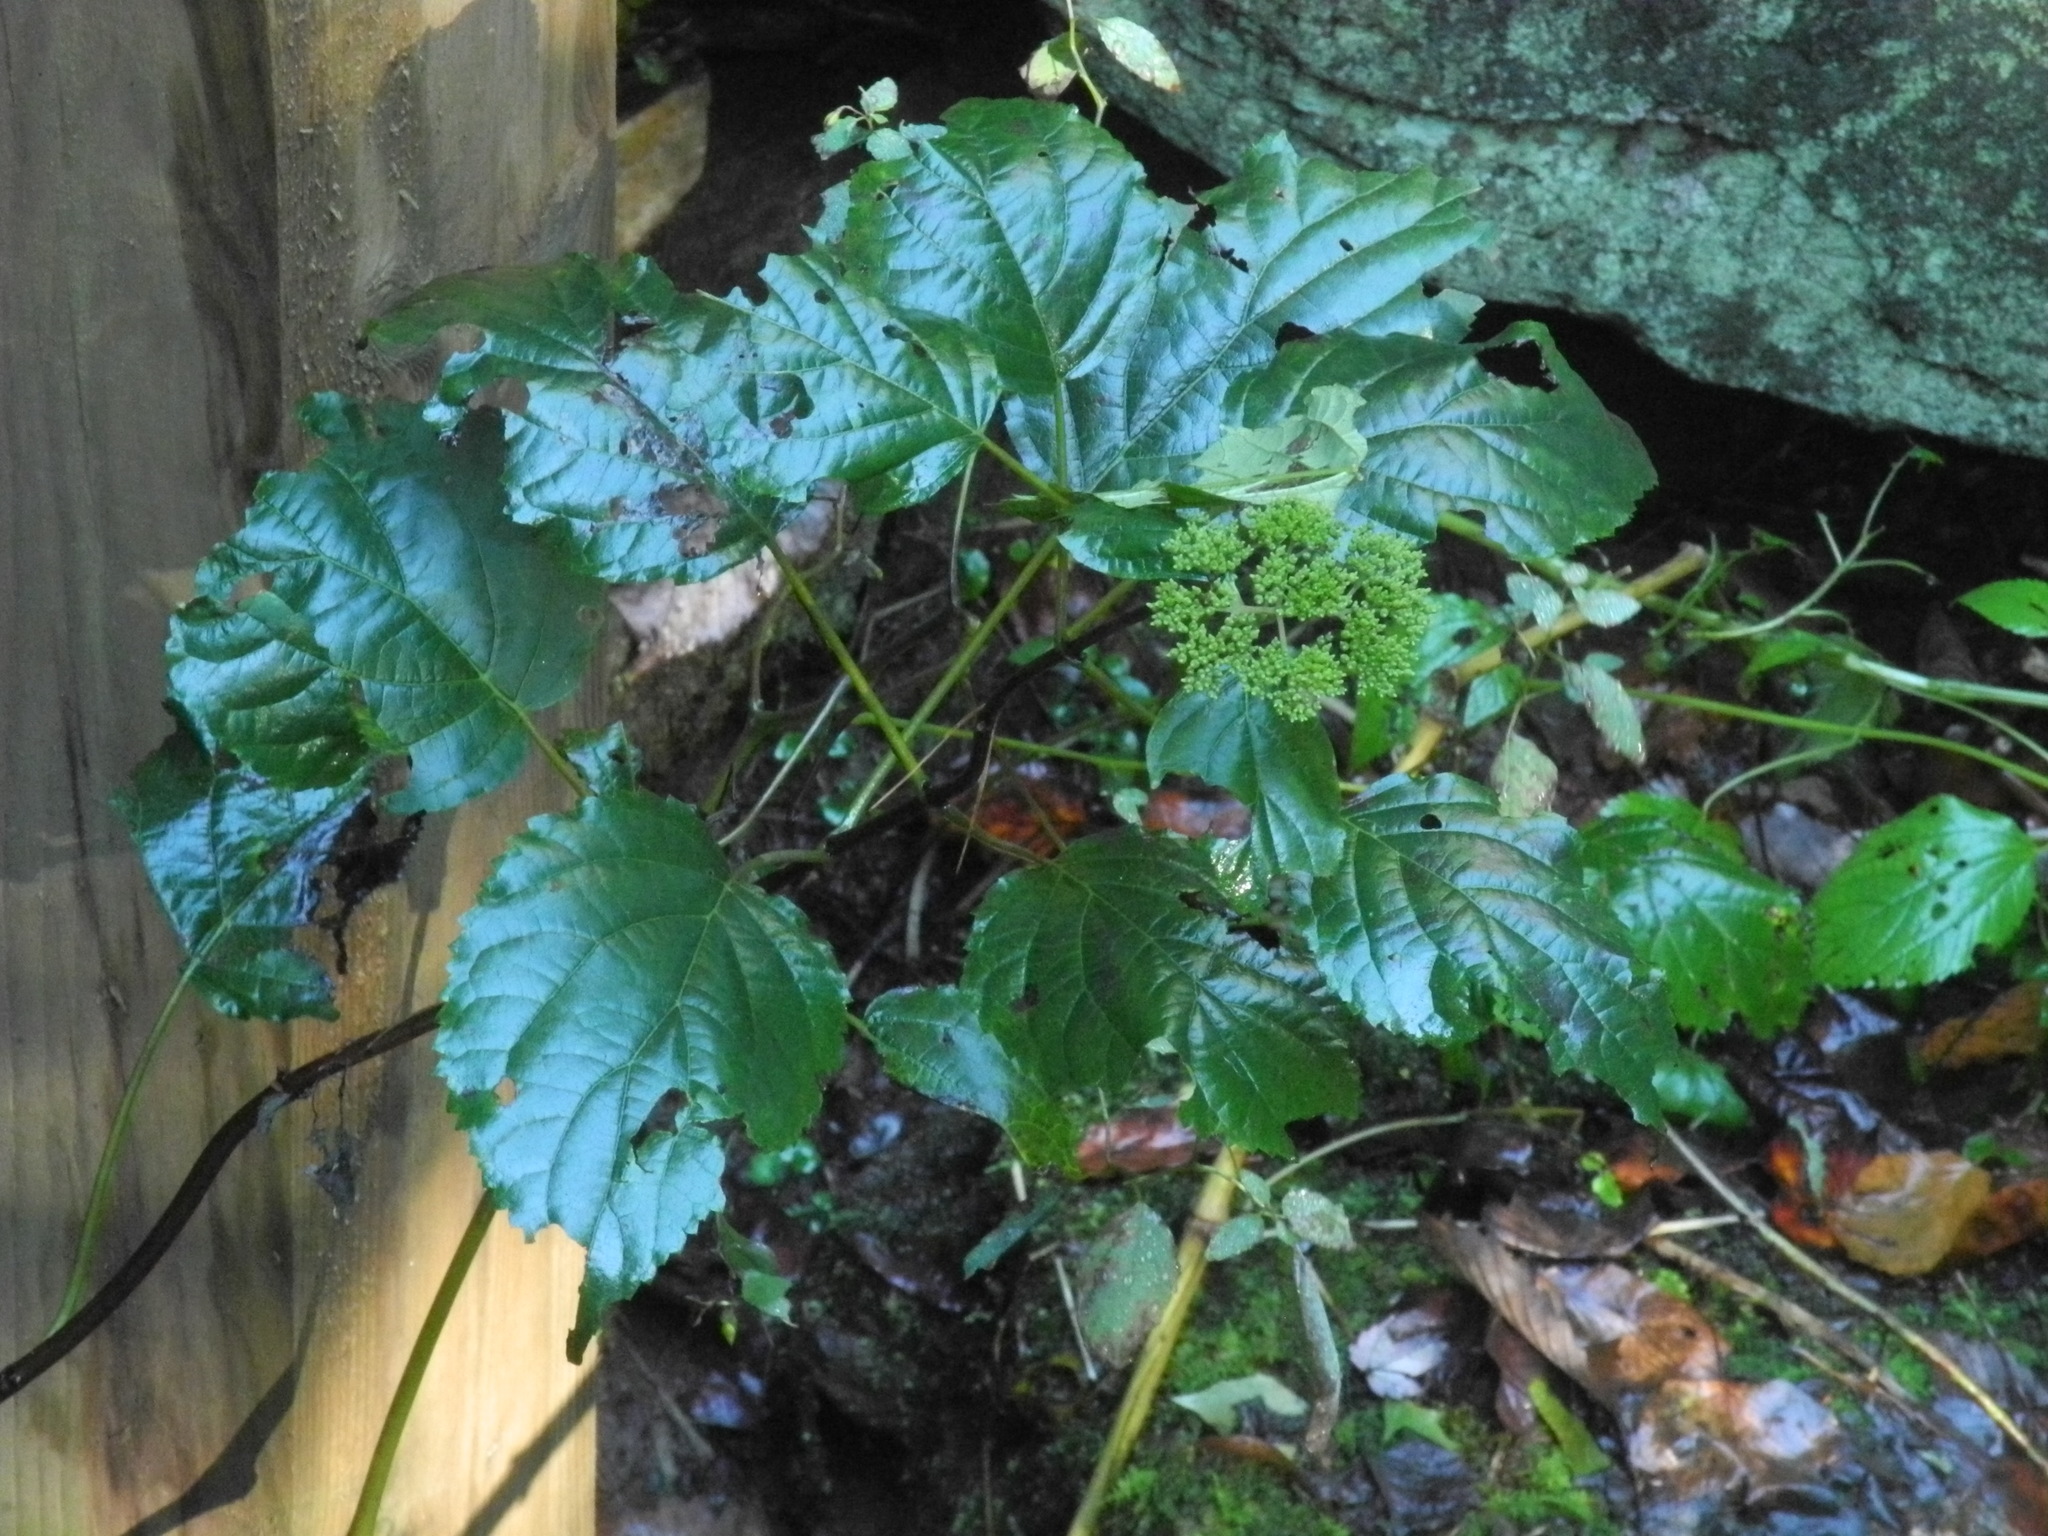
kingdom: Plantae
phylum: Tracheophyta
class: Magnoliopsida
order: Cornales
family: Hydrangeaceae
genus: Hydrangea
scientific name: Hydrangea arborescens
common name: Sevenbark
